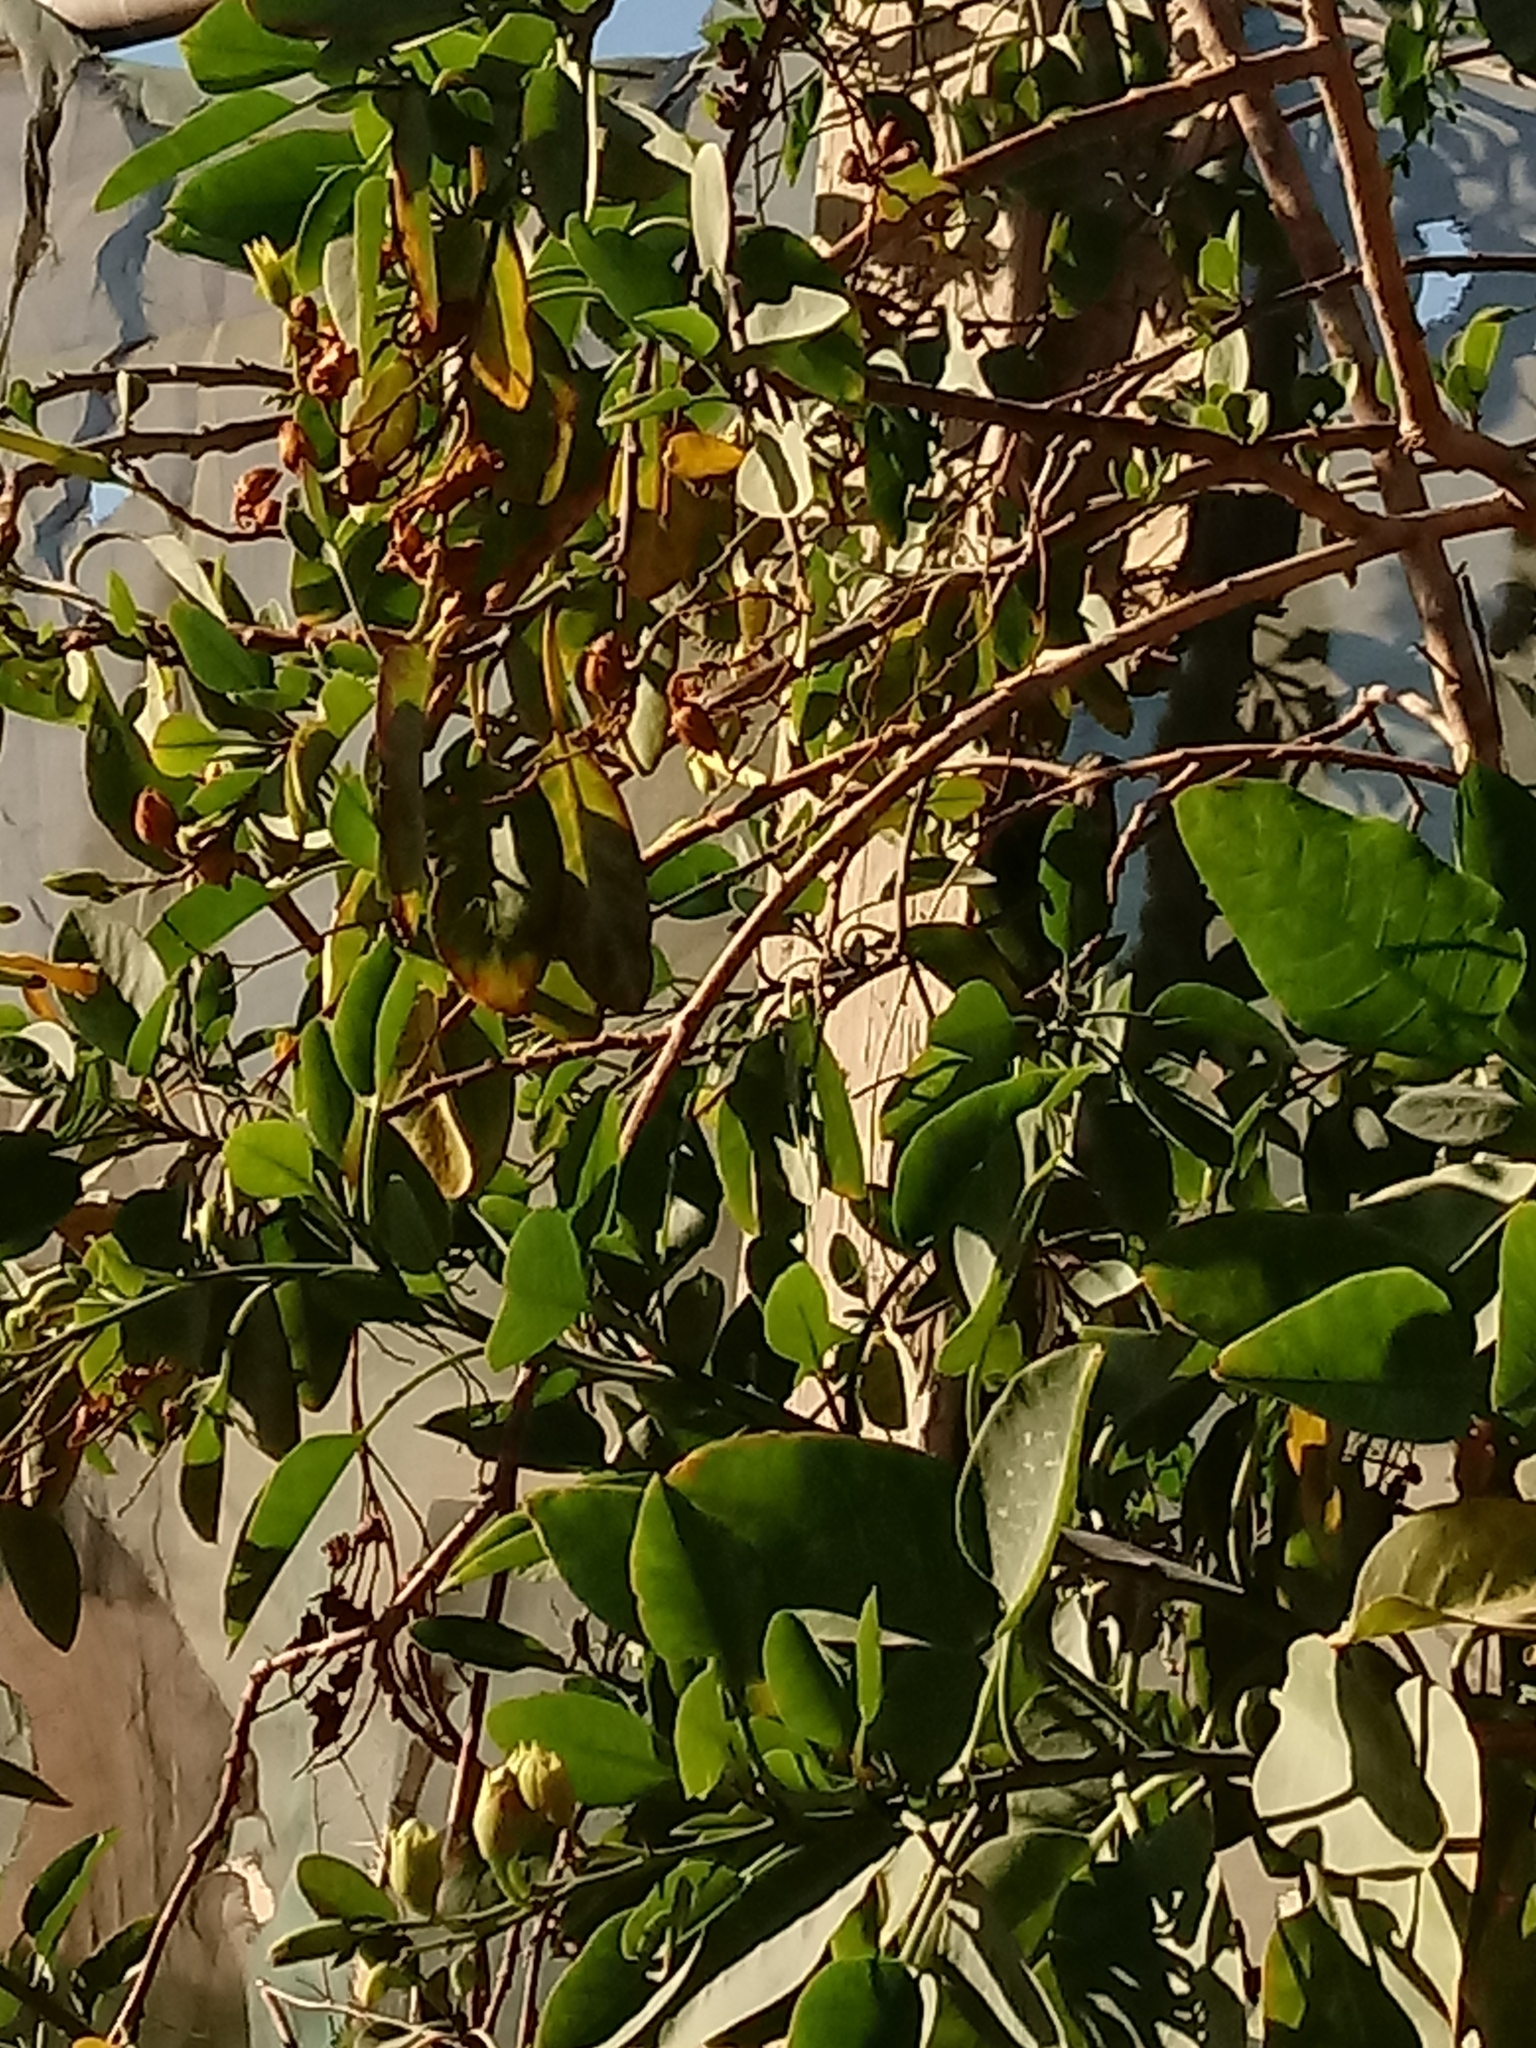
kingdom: Plantae
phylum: Tracheophyta
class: Magnoliopsida
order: Solanales
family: Solanaceae
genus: Nicotiana
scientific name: Nicotiana glauca
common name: Tree tobacco
